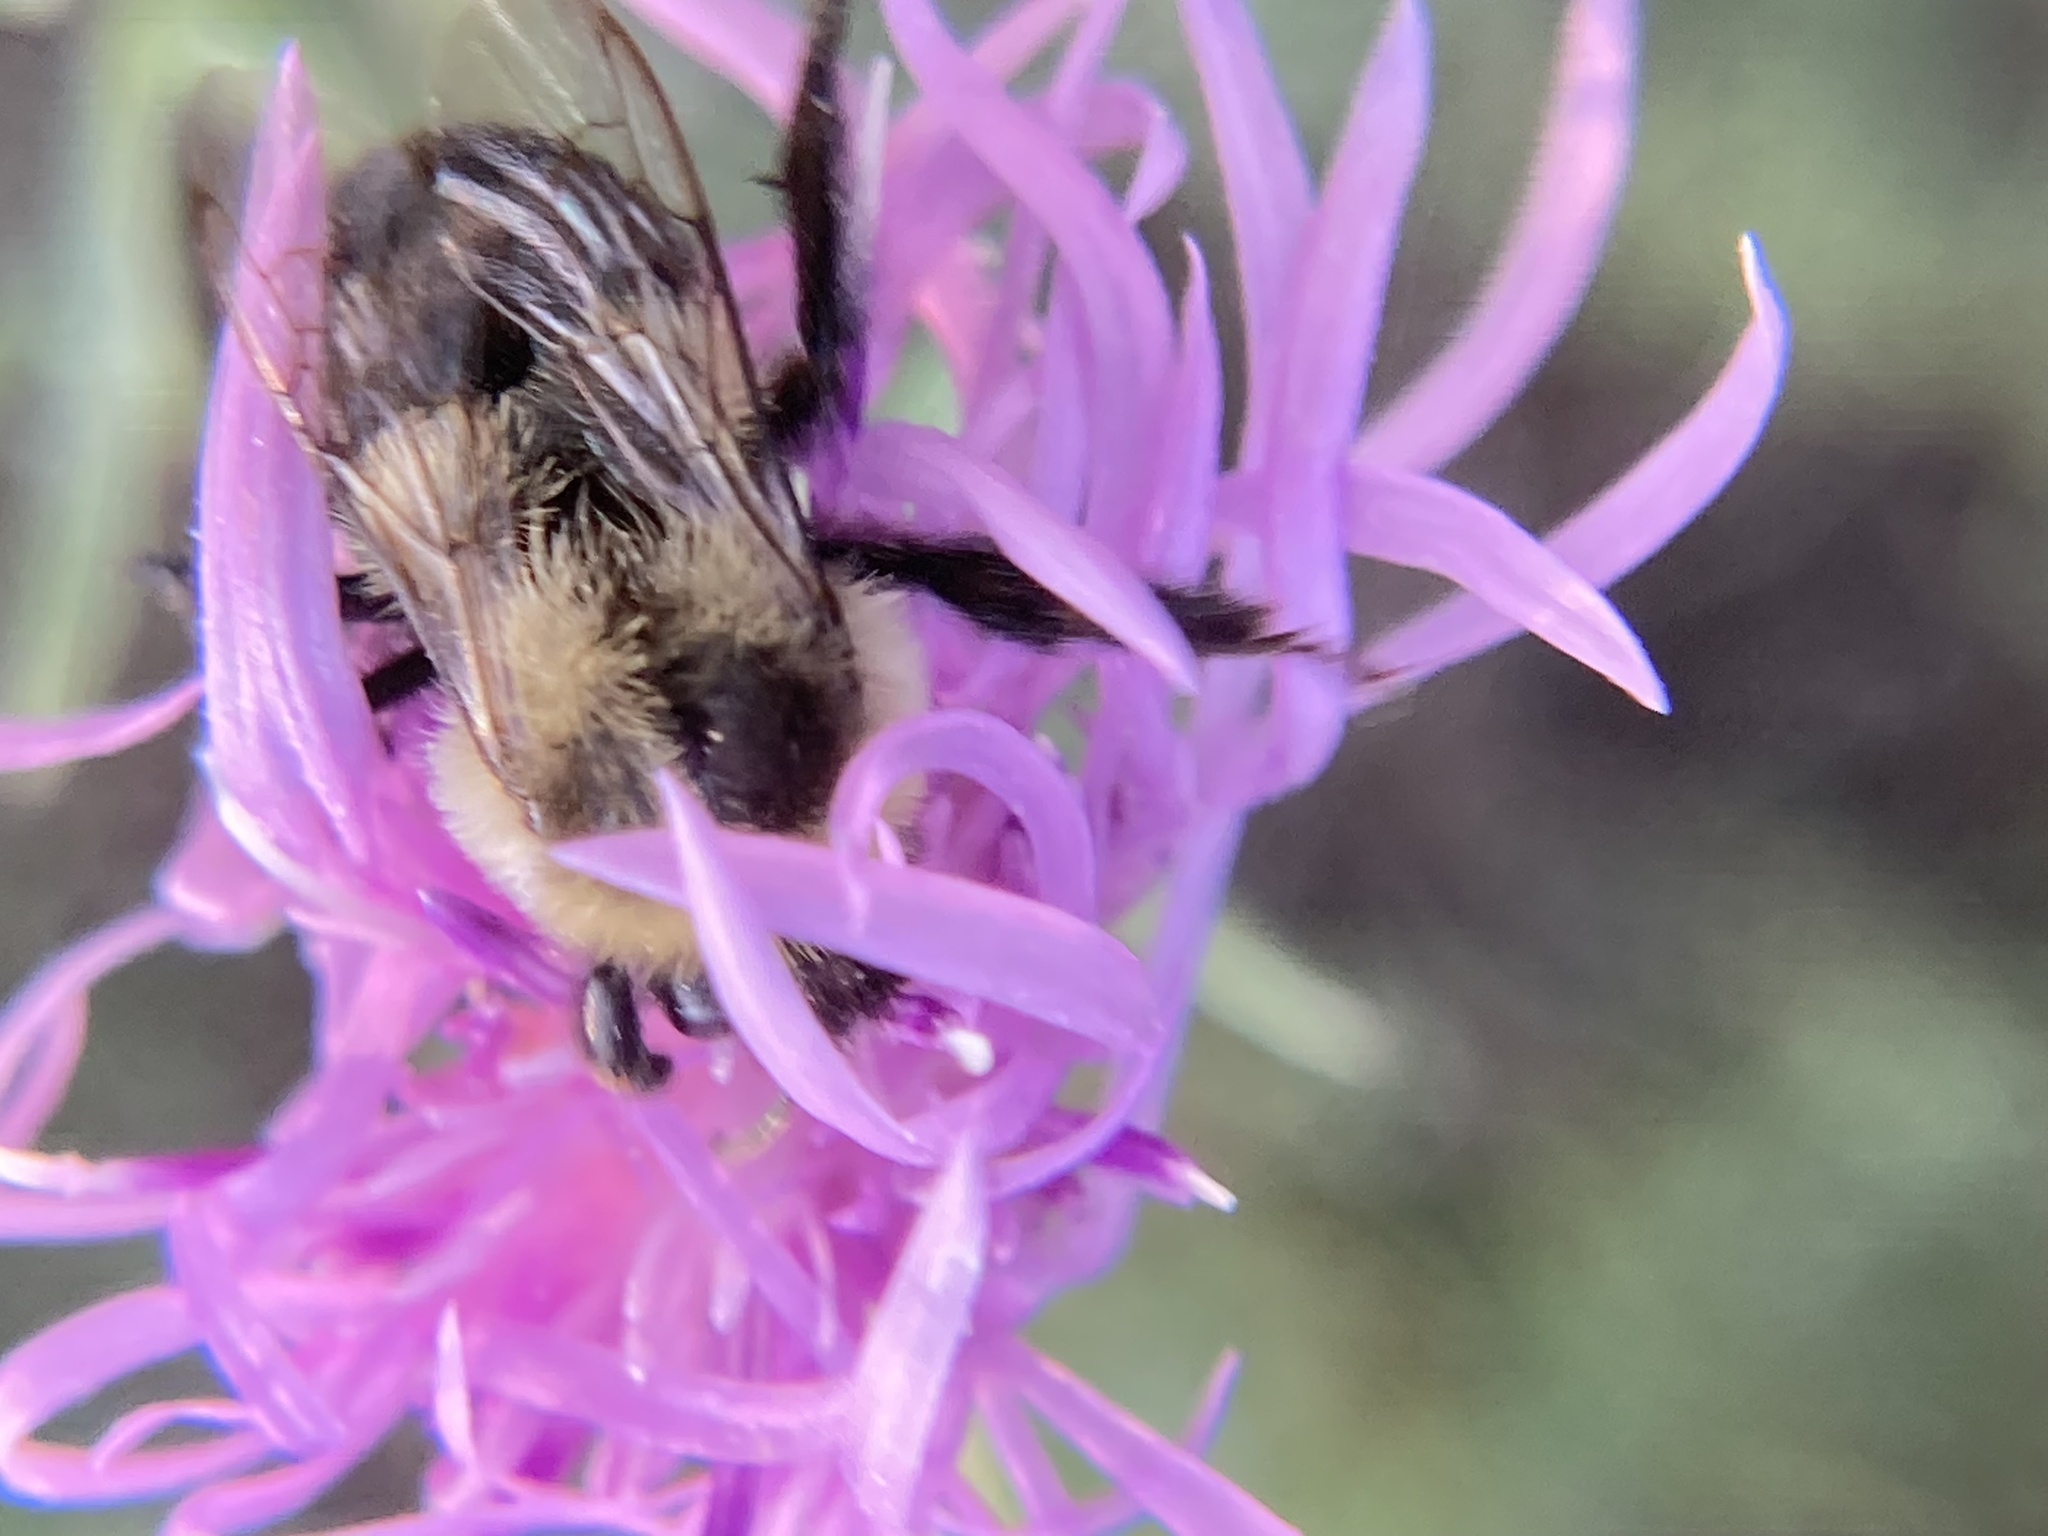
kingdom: Animalia
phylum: Arthropoda
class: Insecta
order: Hymenoptera
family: Apidae
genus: Bombus
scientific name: Bombus impatiens
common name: Common eastern bumble bee
